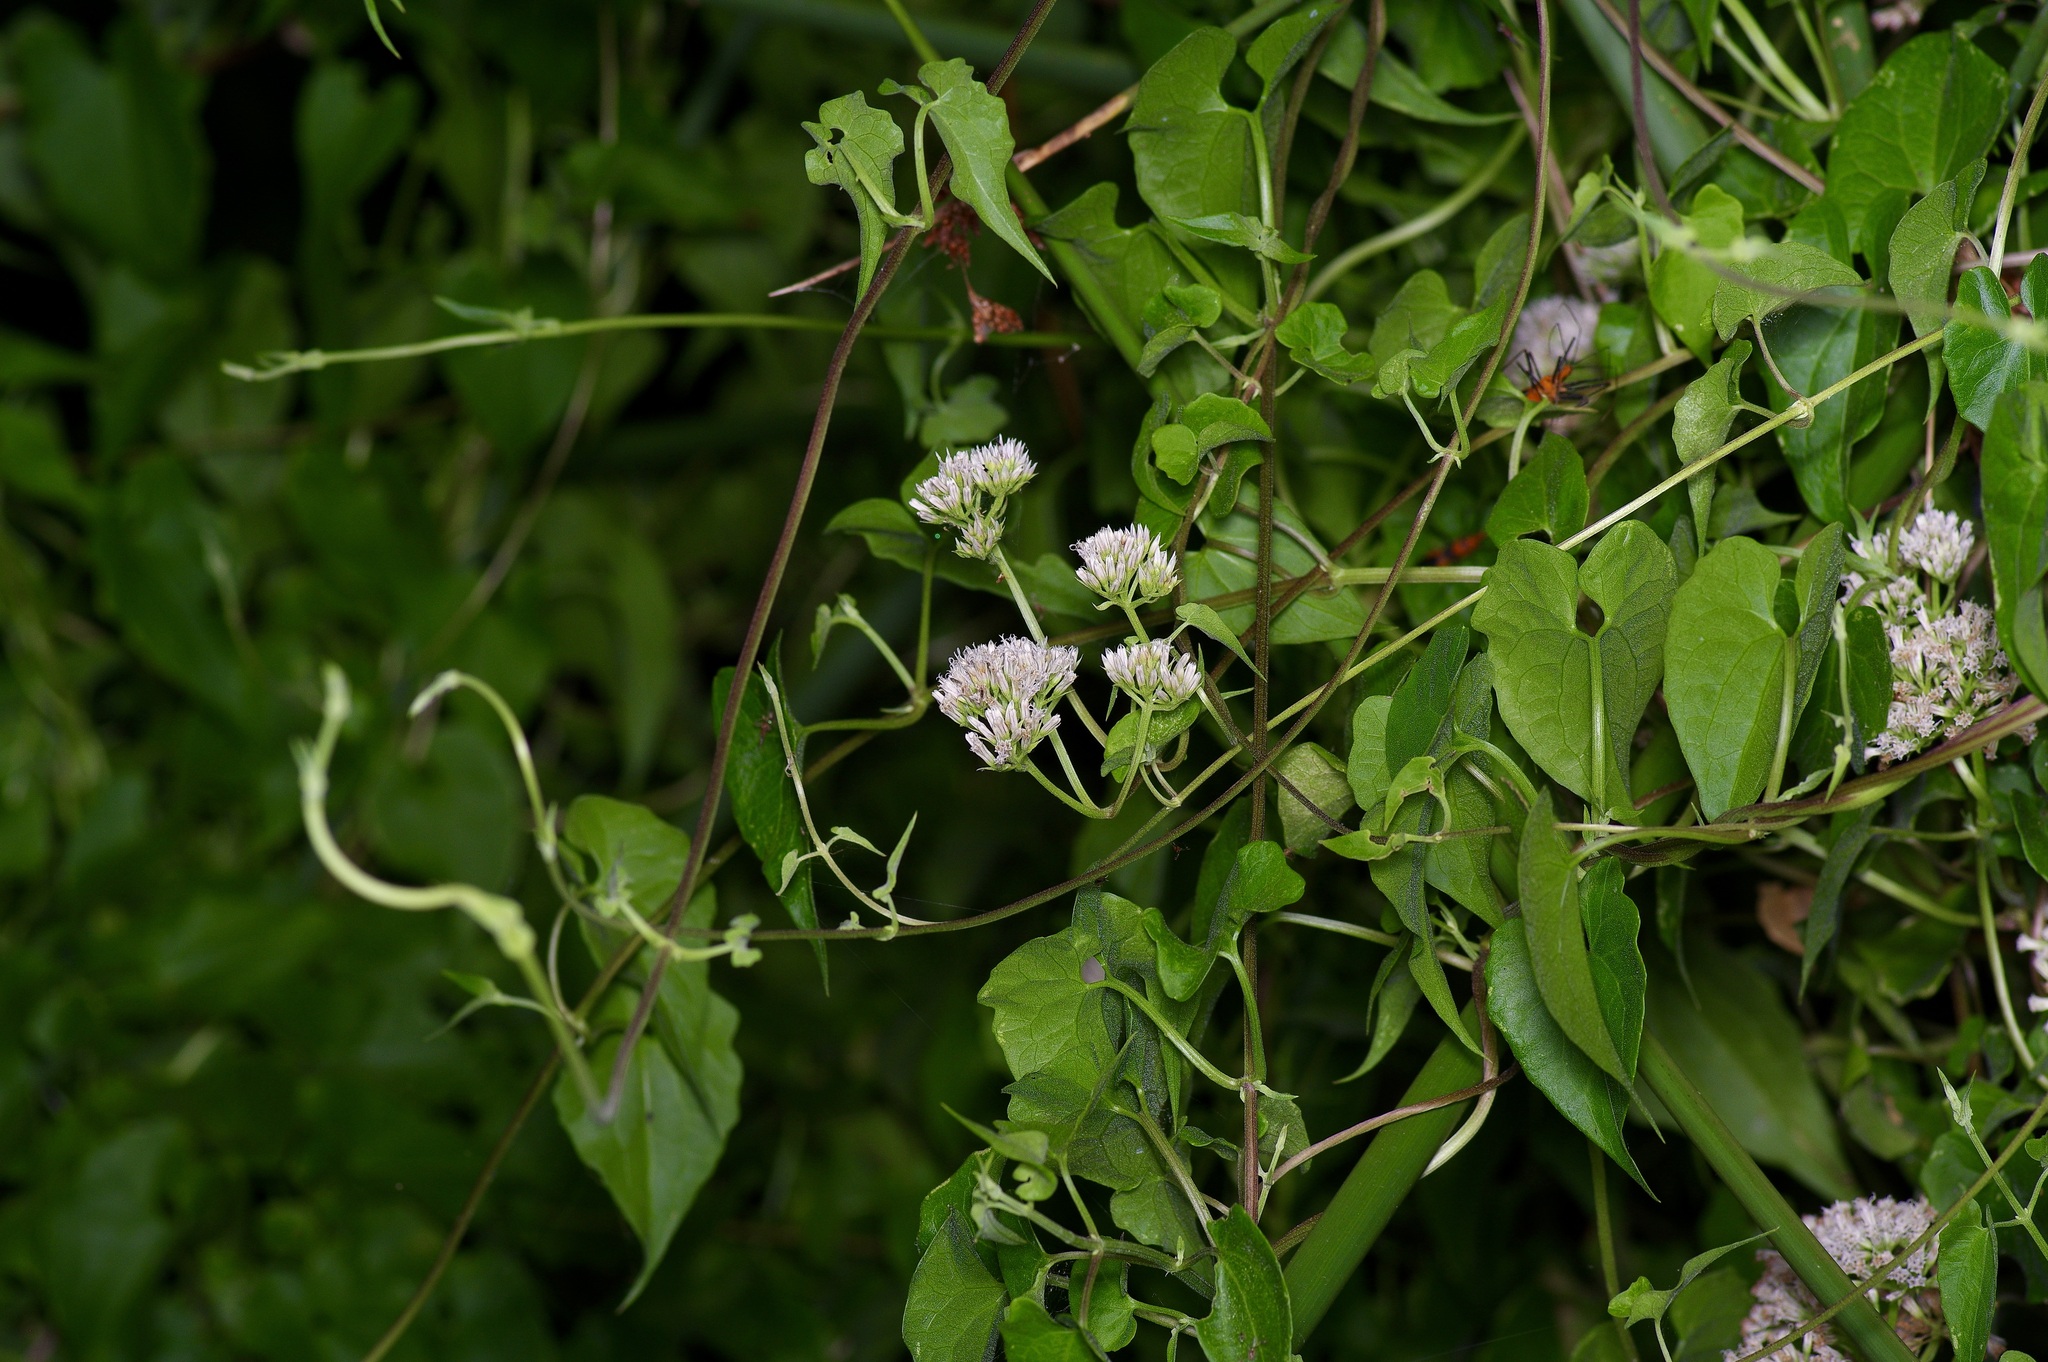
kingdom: Plantae
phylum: Tracheophyta
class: Magnoliopsida
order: Asterales
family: Asteraceae
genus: Mikania
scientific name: Mikania scandens
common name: Climbing hempvine
